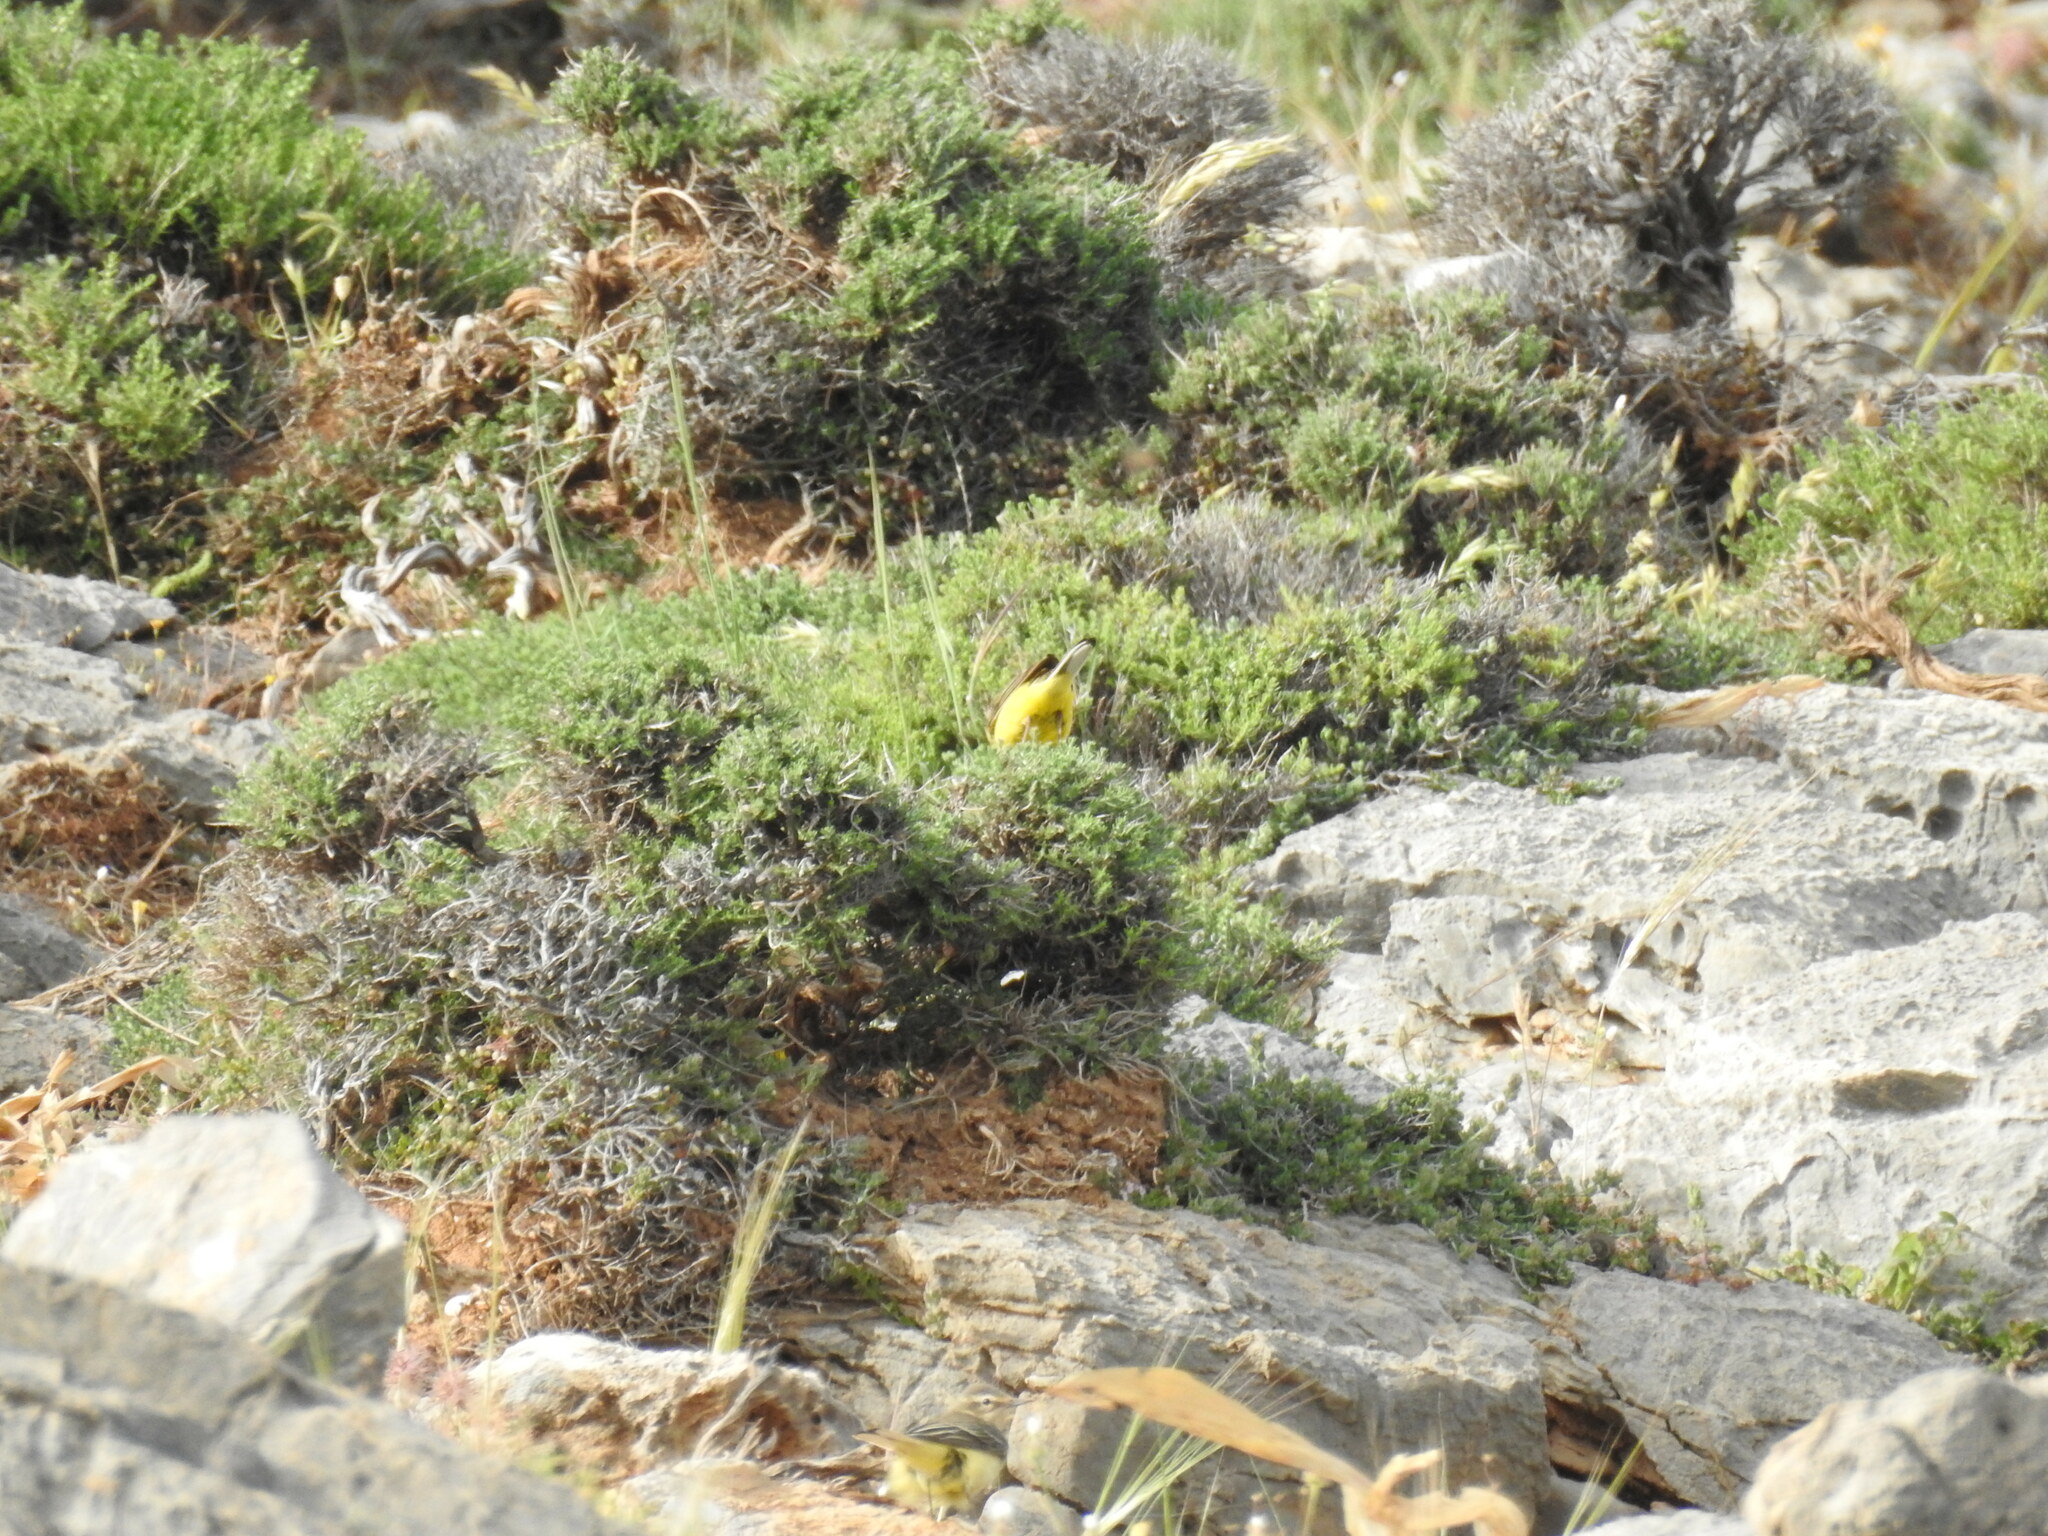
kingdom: Animalia
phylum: Chordata
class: Aves
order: Passeriformes
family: Motacillidae
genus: Motacilla
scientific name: Motacilla flava
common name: Western yellow wagtail
